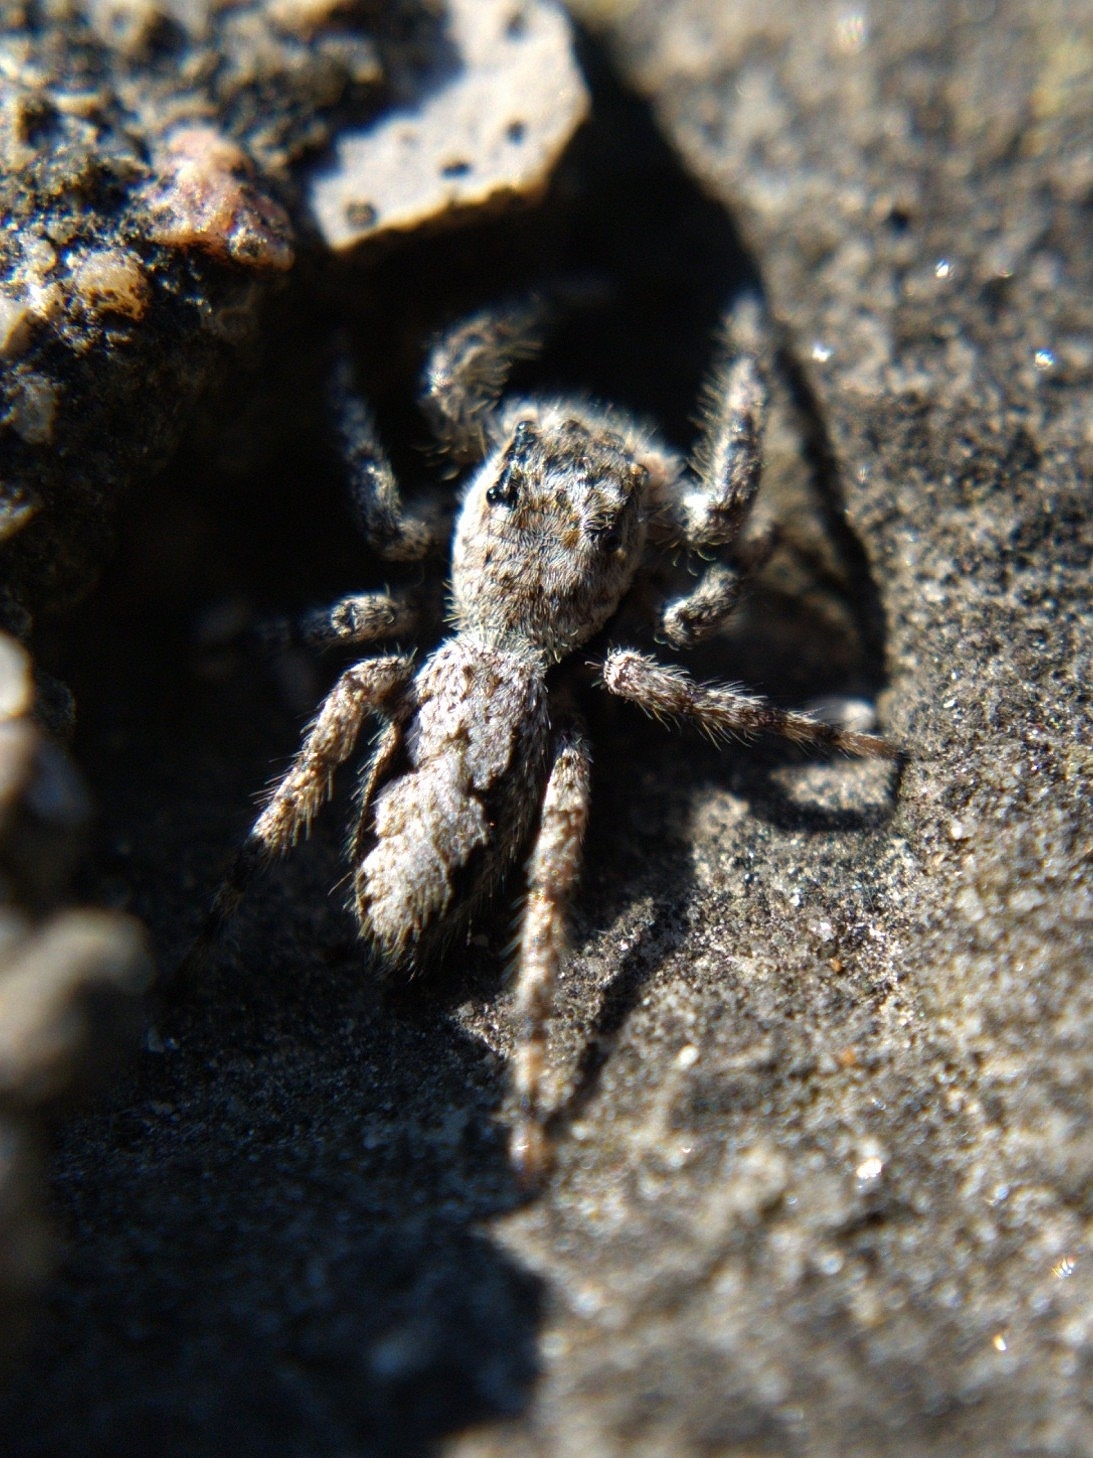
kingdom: Animalia
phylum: Arthropoda
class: Arachnida
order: Araneae
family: Salticidae
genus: Platycryptus
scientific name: Platycryptus undatus
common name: Tan jumping spider
